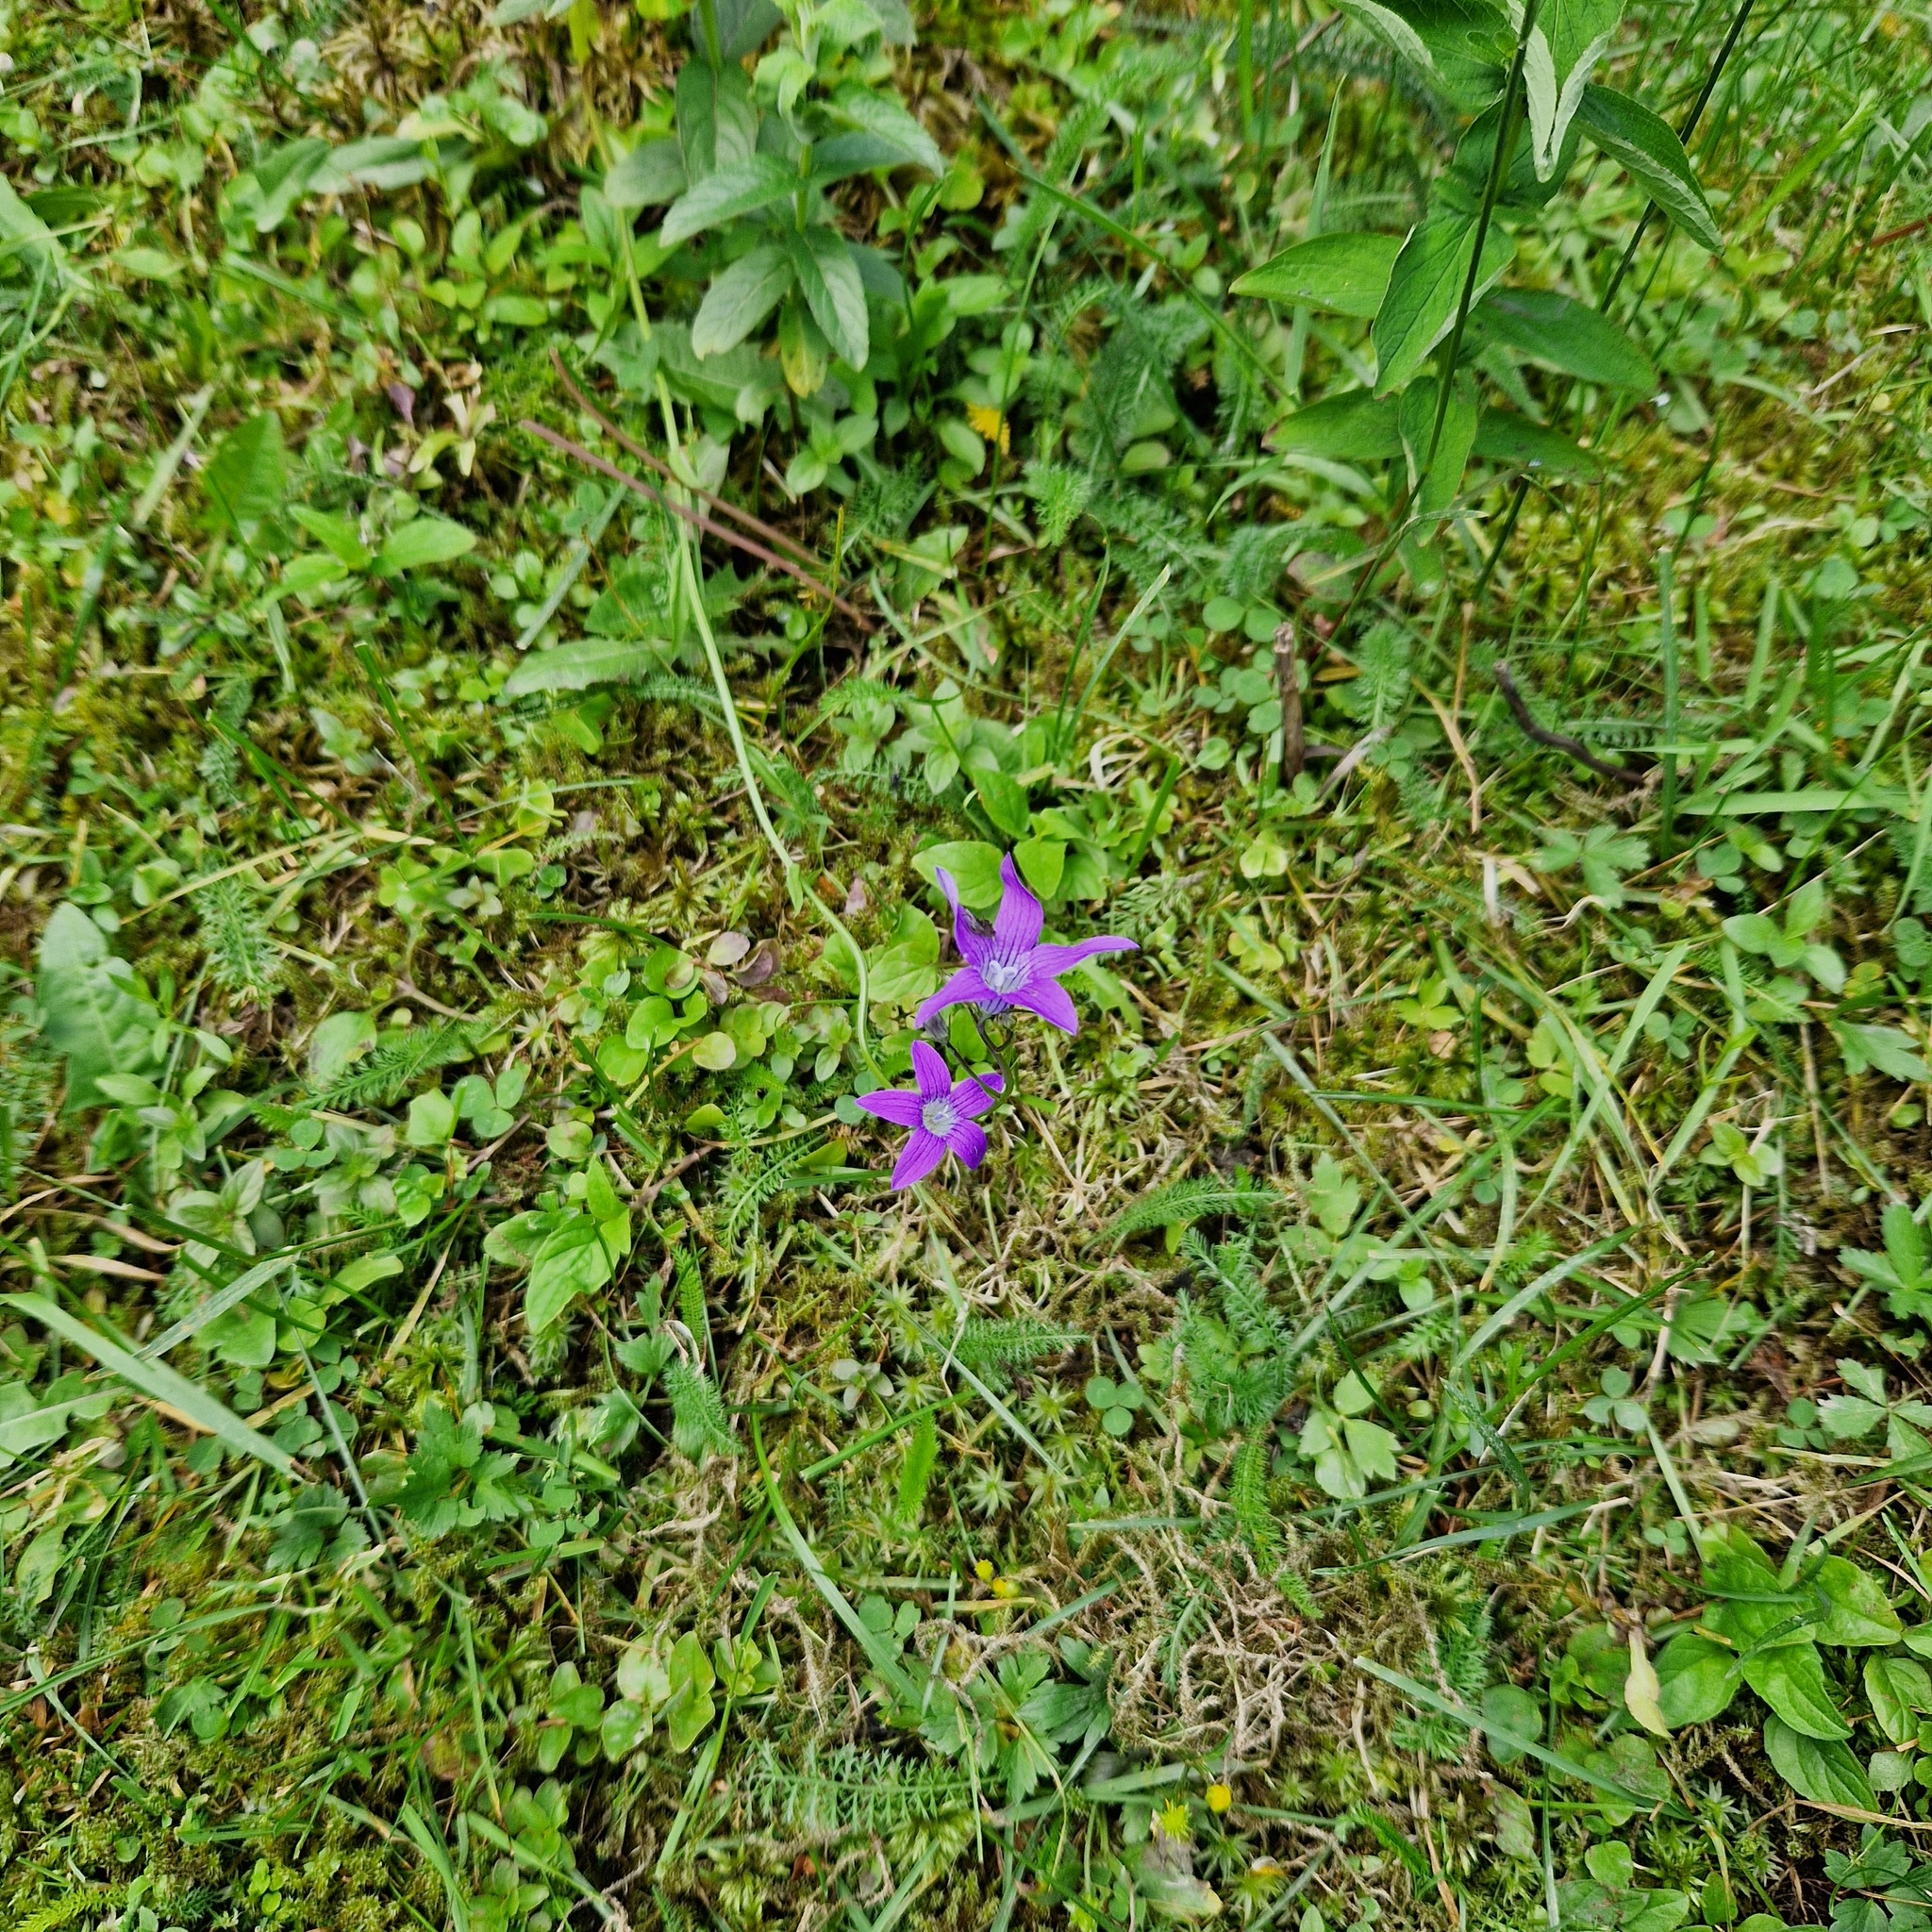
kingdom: Plantae
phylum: Tracheophyta
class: Magnoliopsida
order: Asterales
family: Campanulaceae
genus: Campanula
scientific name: Campanula patula
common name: Spreading bellflower
